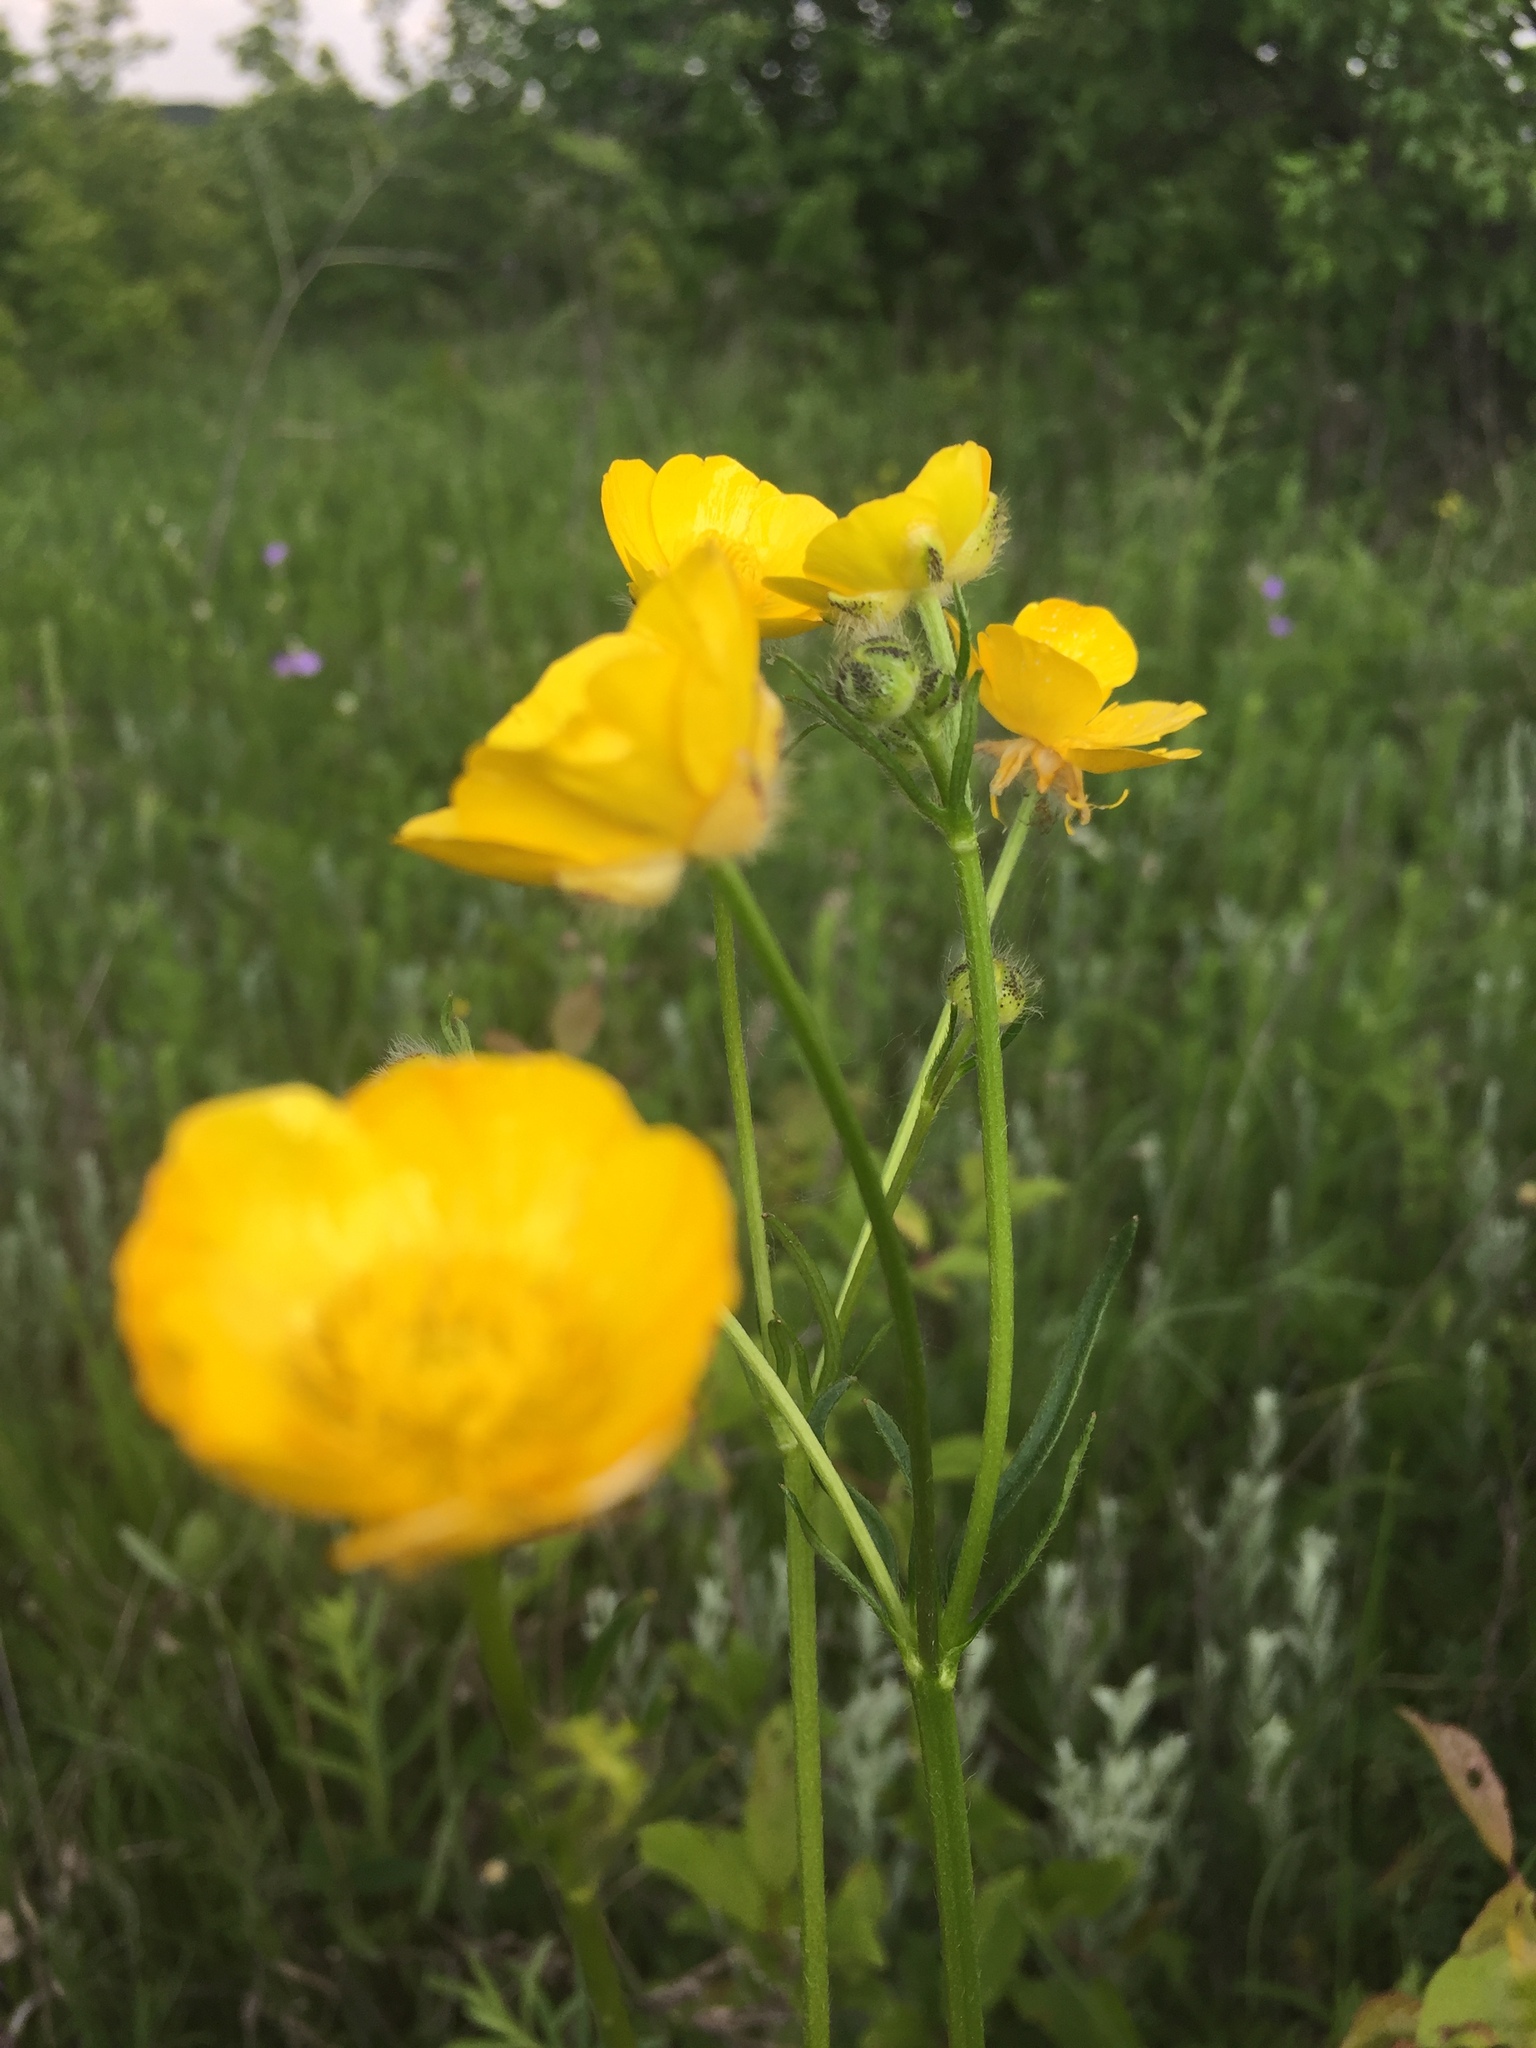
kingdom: Plantae
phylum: Tracheophyta
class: Magnoliopsida
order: Ranunculales
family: Ranunculaceae
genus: Ranunculus
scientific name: Ranunculus polyanthemos
